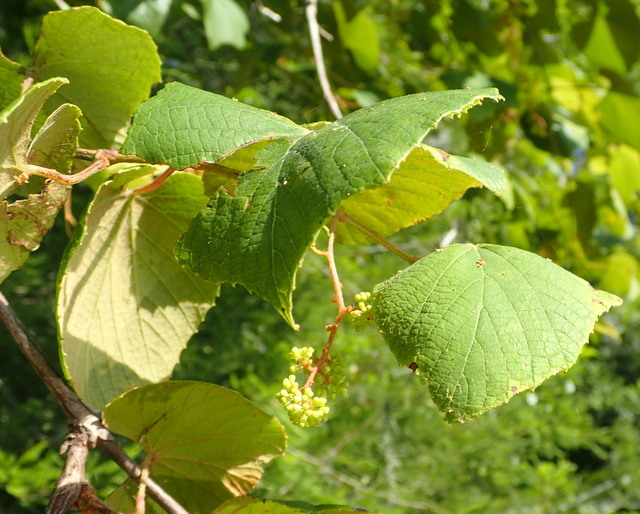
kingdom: Plantae
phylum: Tracheophyta
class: Magnoliopsida
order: Vitales
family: Vitaceae
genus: Vitis
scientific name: Vitis cinerea
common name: Ashy grape
